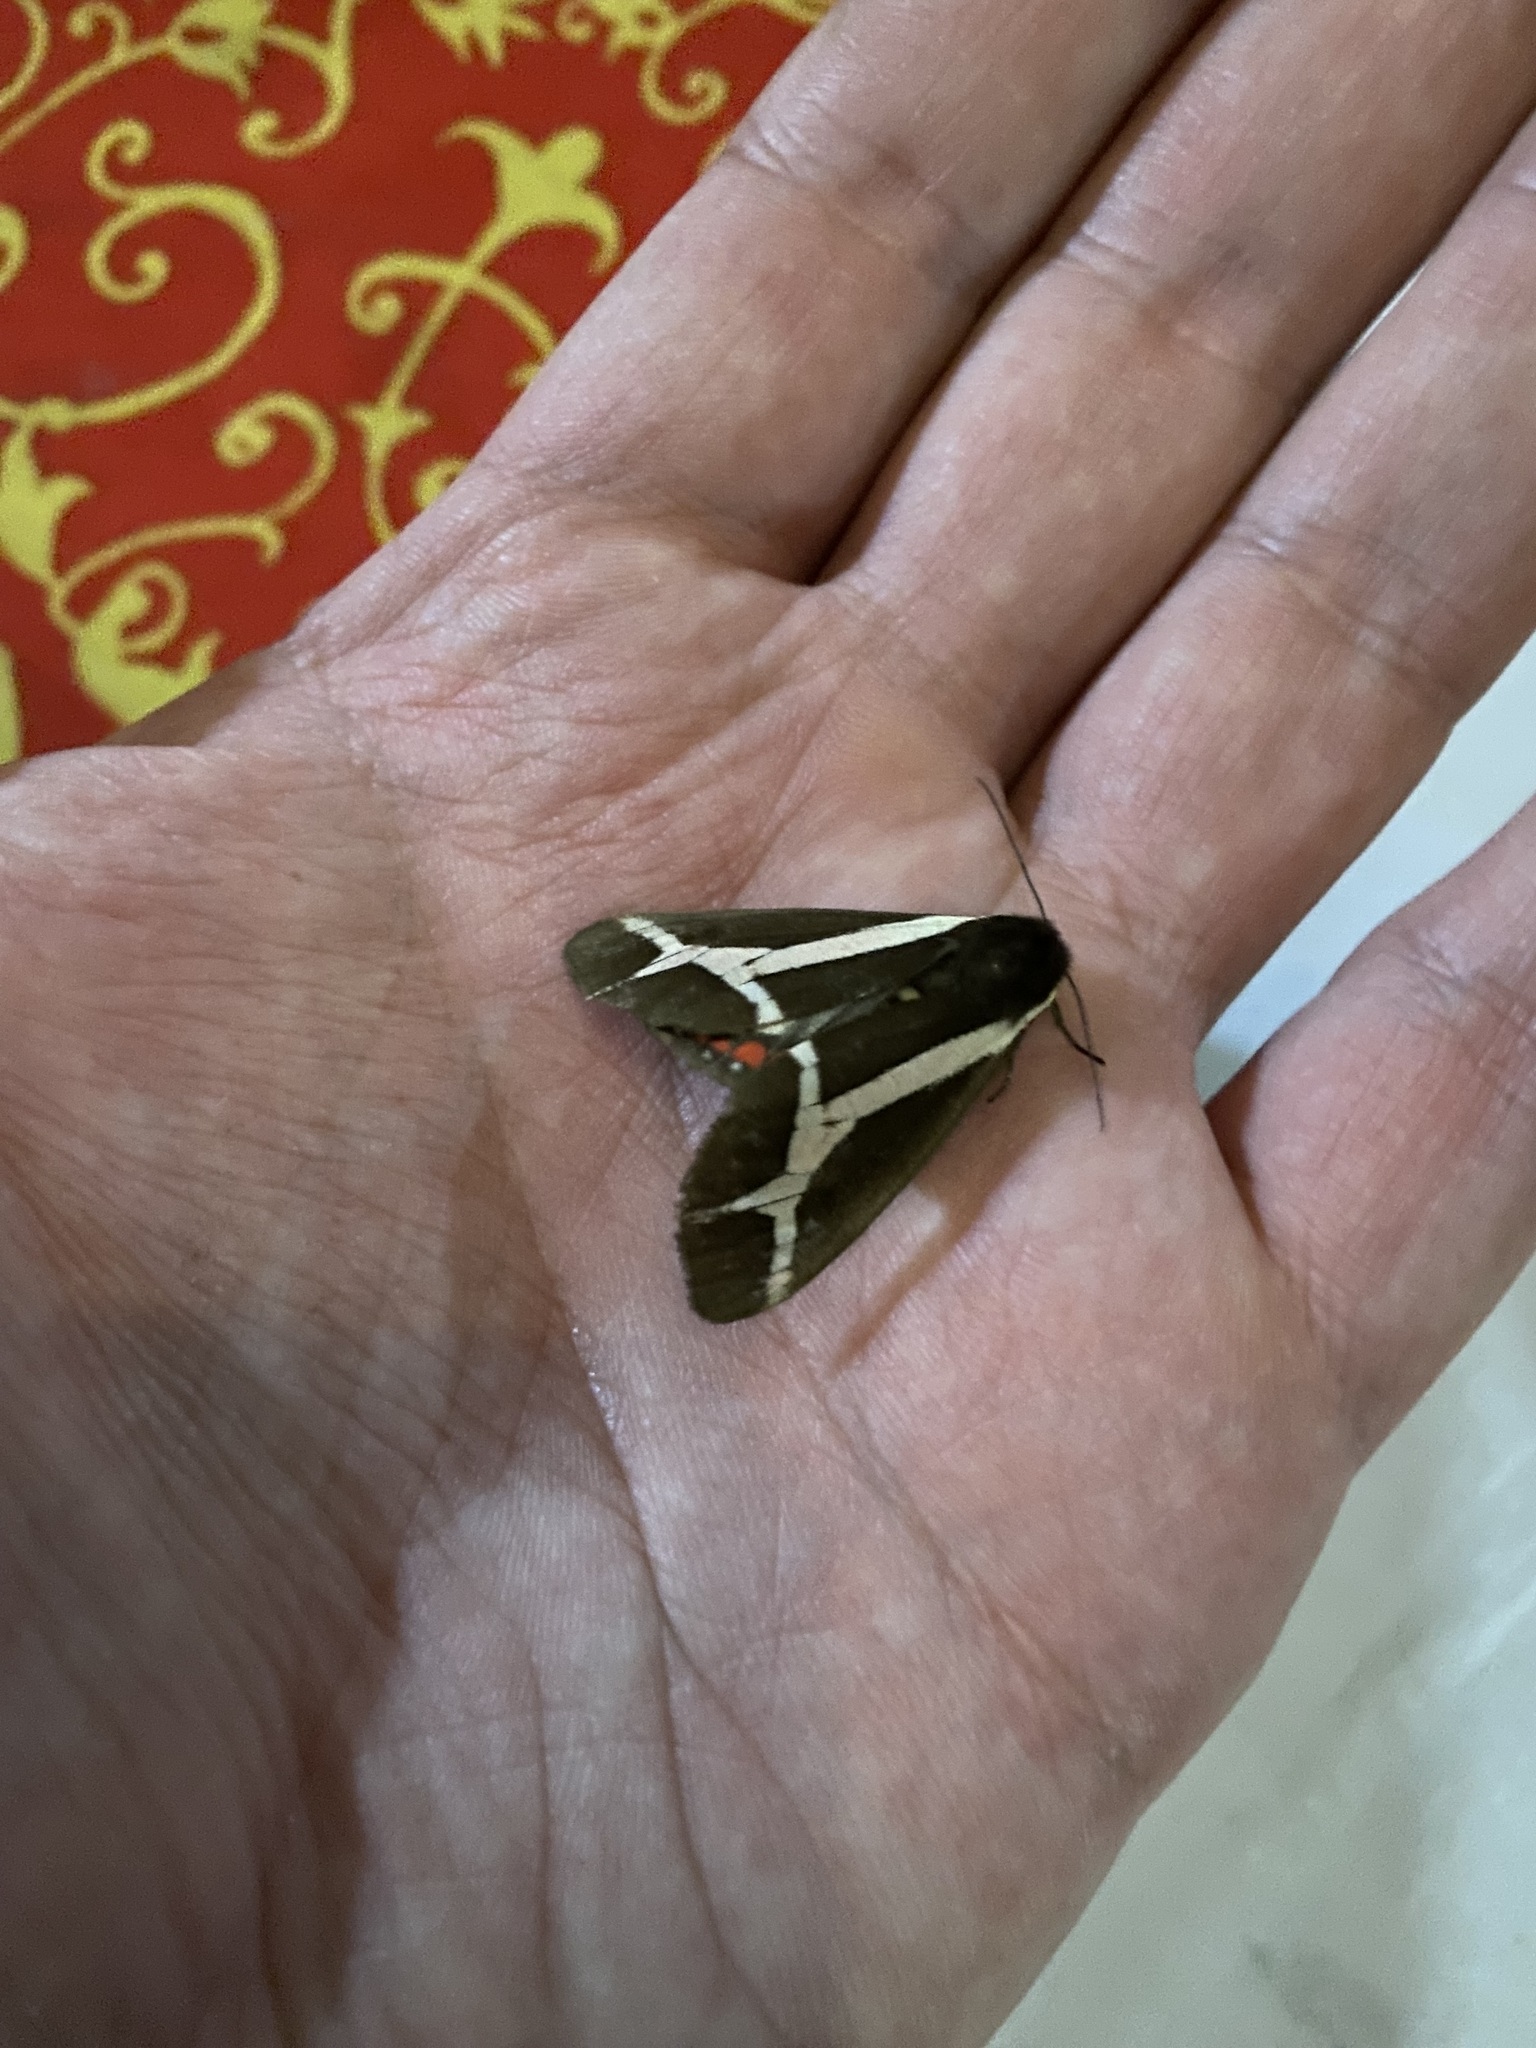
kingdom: Animalia
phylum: Arthropoda
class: Insecta
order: Lepidoptera
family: Erebidae
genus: Dysschema
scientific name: Dysschema sacrifica
